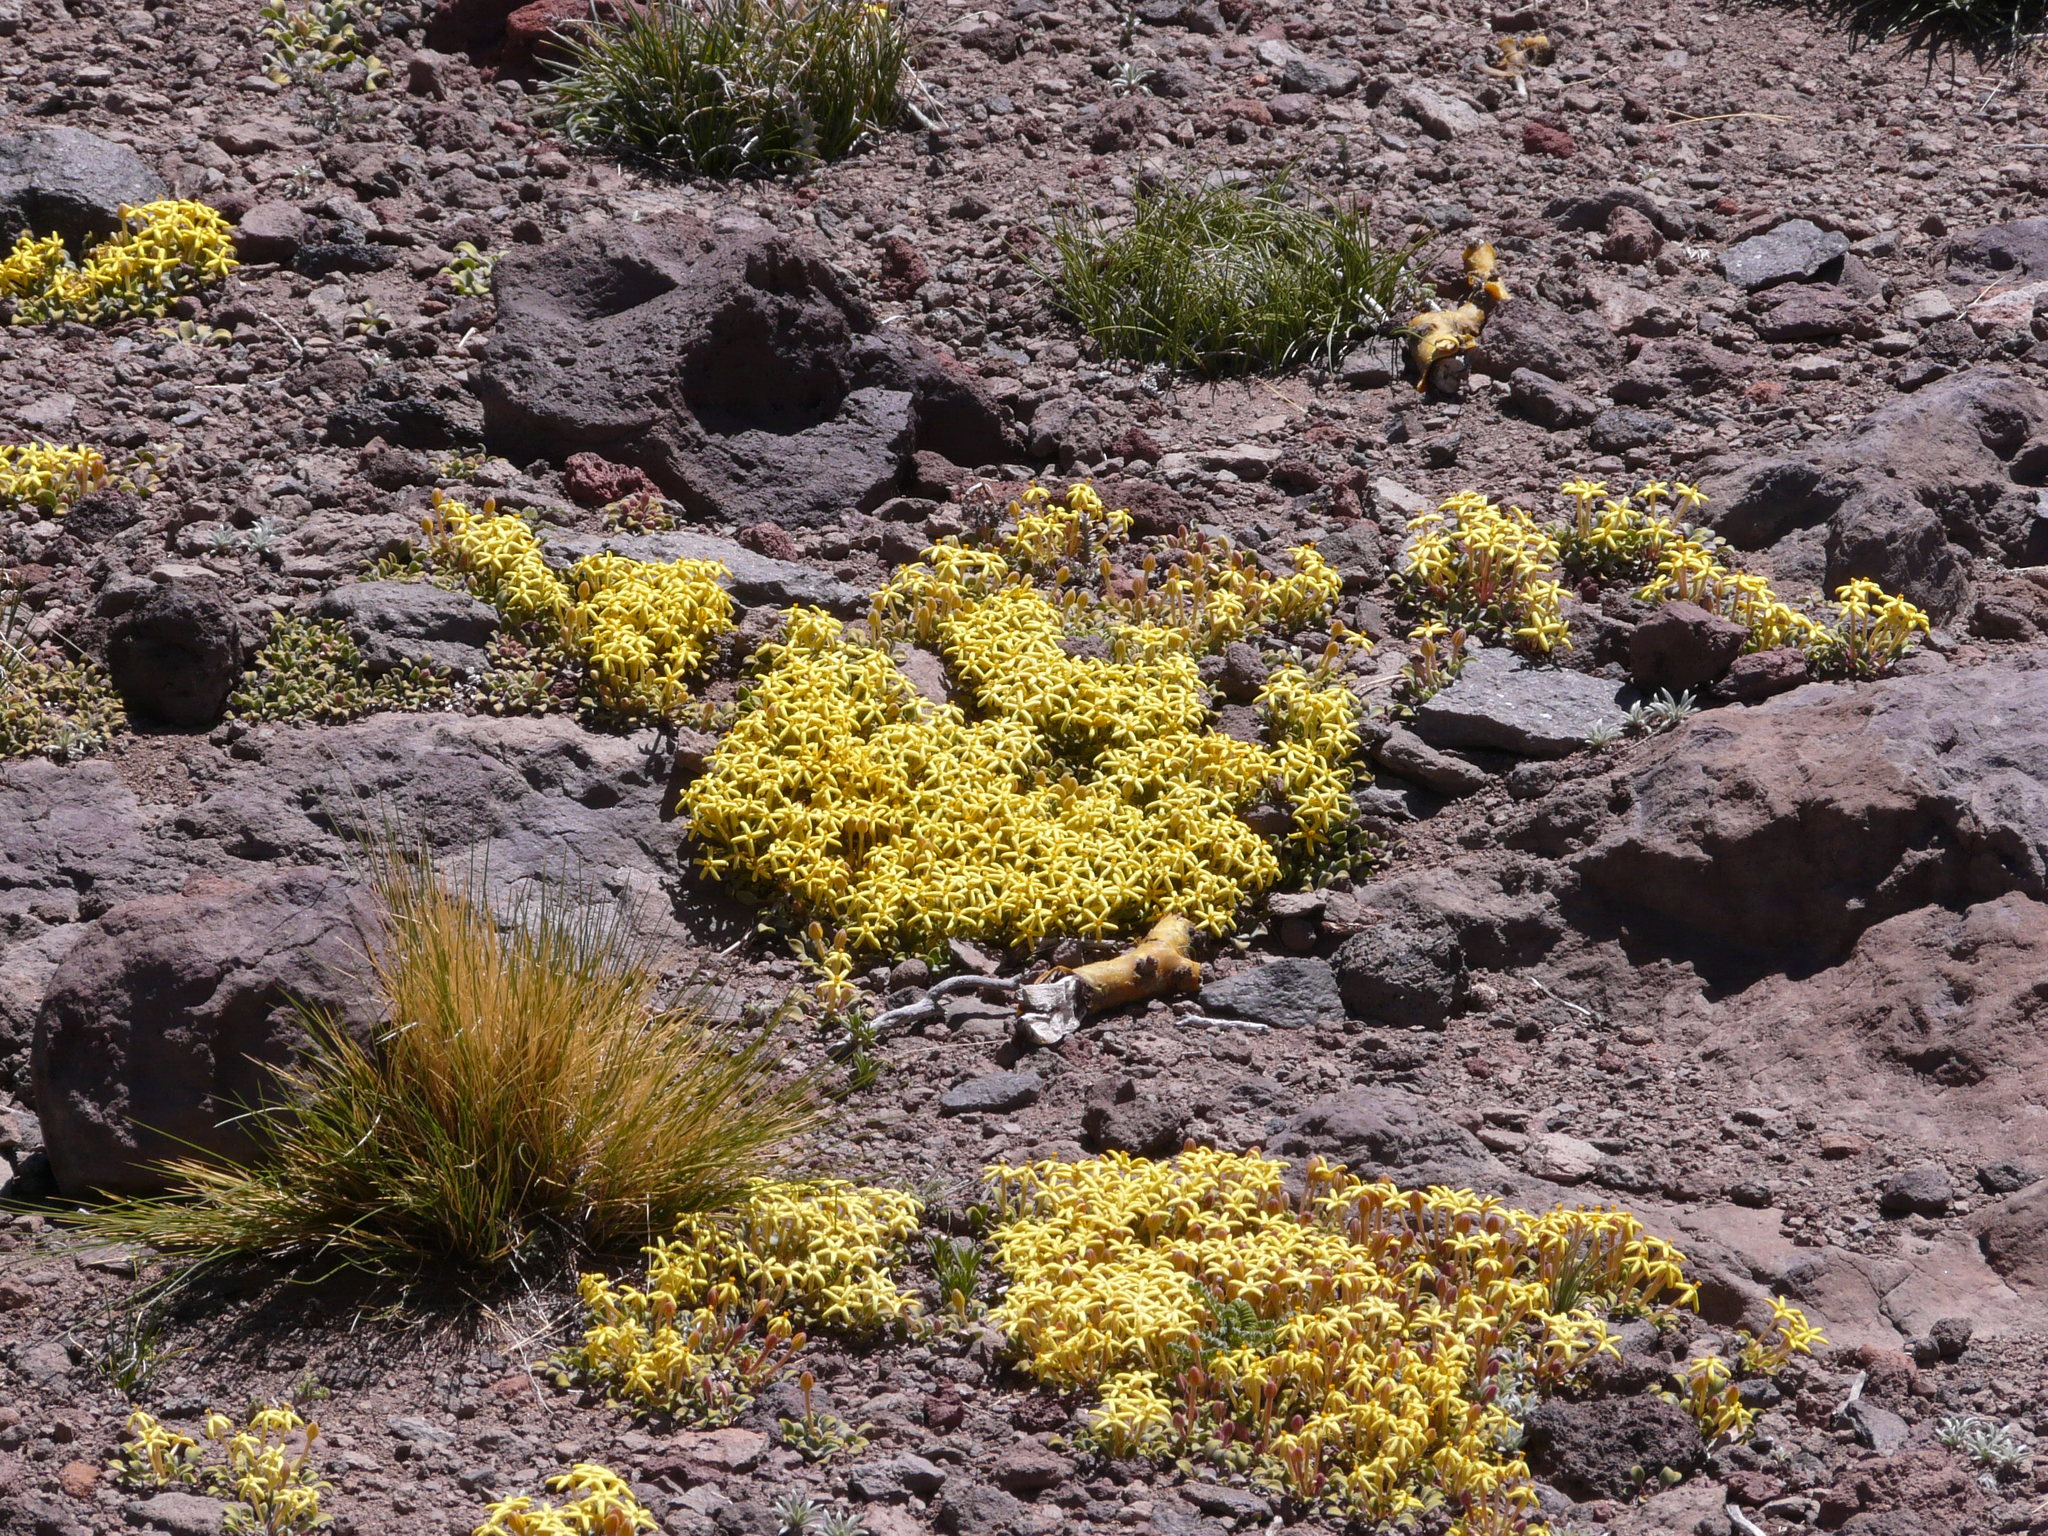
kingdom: Plantae
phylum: Tracheophyta
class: Magnoliopsida
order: Gentianales
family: Rubiaceae
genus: Oreopolus
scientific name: Oreopolus glacialis
